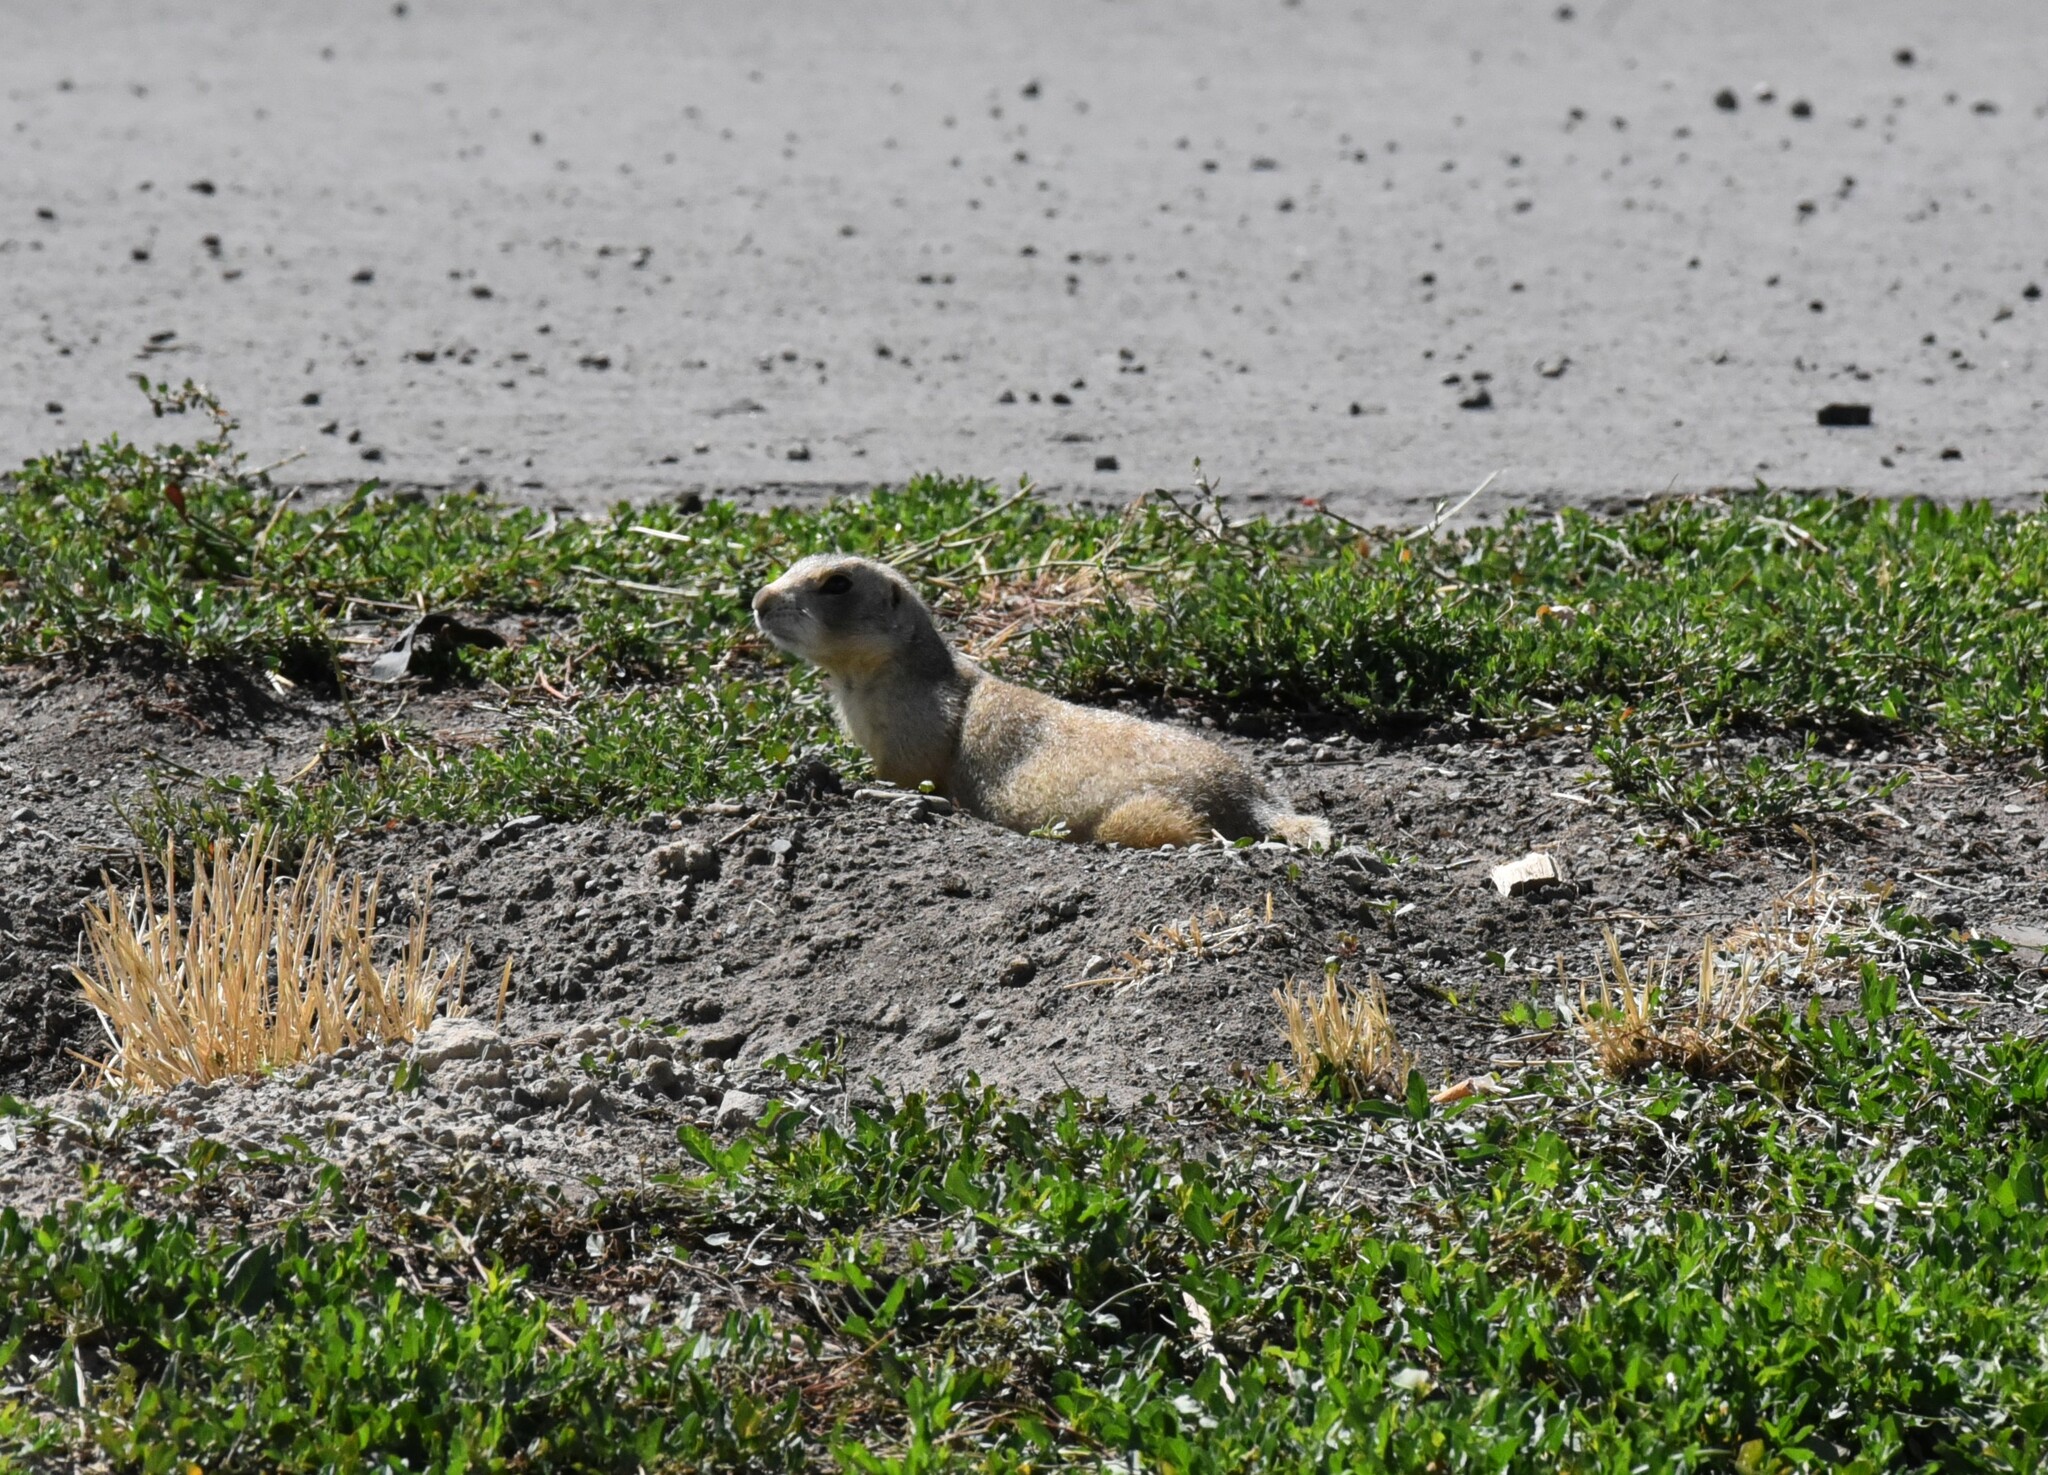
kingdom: Animalia
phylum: Chordata
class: Mammalia
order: Rodentia
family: Sciuridae
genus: Cynomys
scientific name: Cynomys leucurus
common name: White-tailed prairie dog
